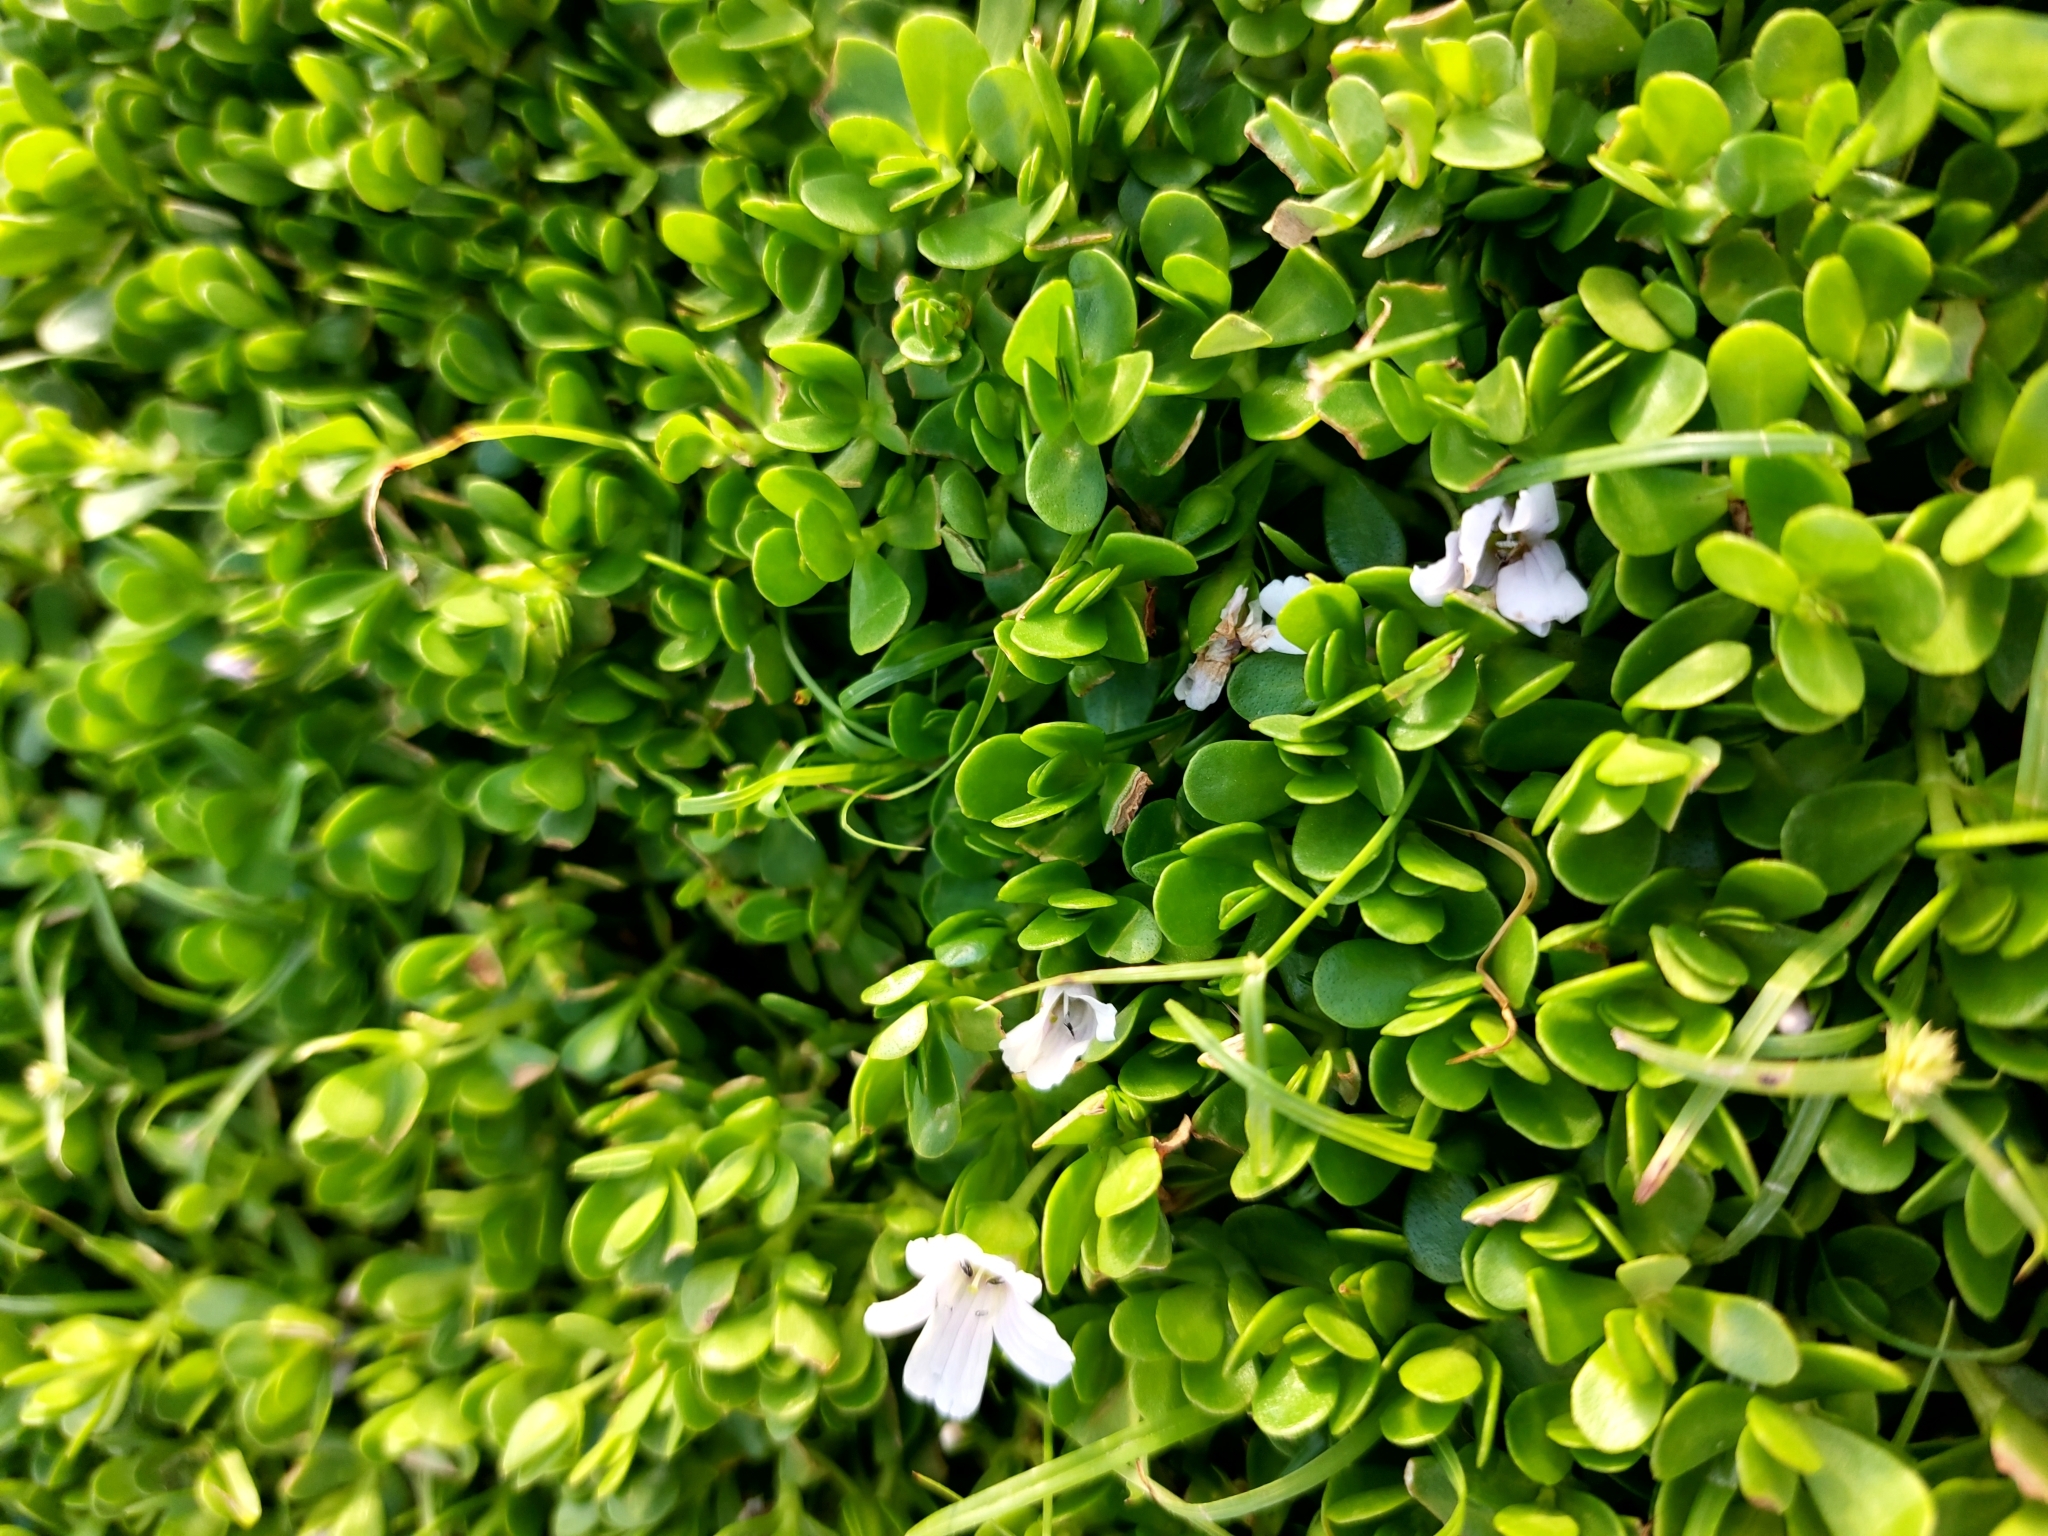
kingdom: Plantae
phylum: Tracheophyta
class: Magnoliopsida
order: Lamiales
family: Plantaginaceae
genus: Bacopa
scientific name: Bacopa monnieri
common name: Indian-pennywort
